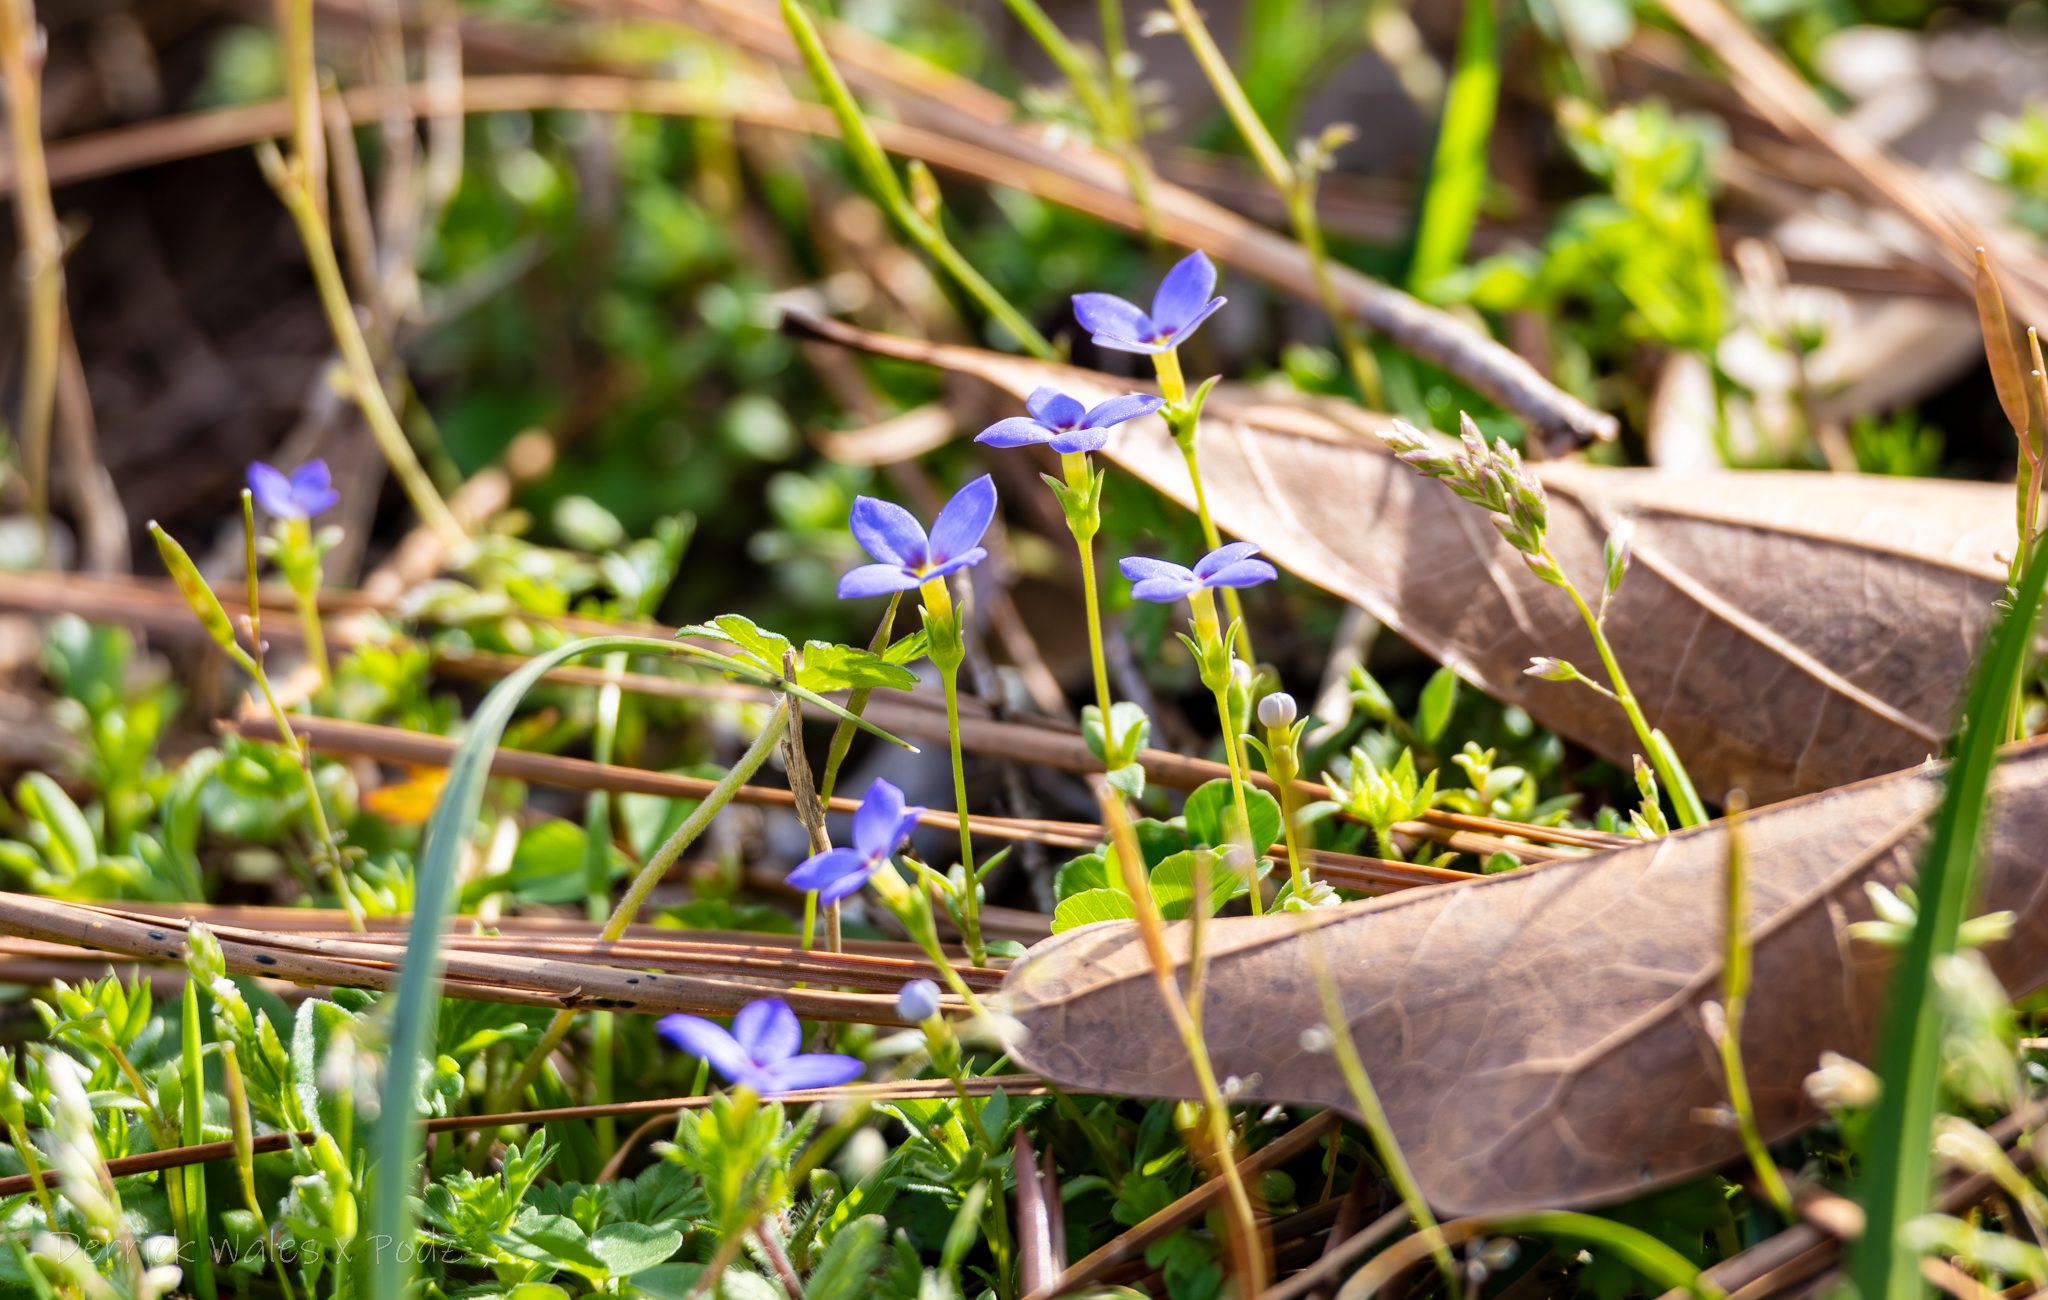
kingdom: Plantae
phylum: Tracheophyta
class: Magnoliopsida
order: Gentianales
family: Rubiaceae
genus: Houstonia
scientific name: Houstonia pusilla
